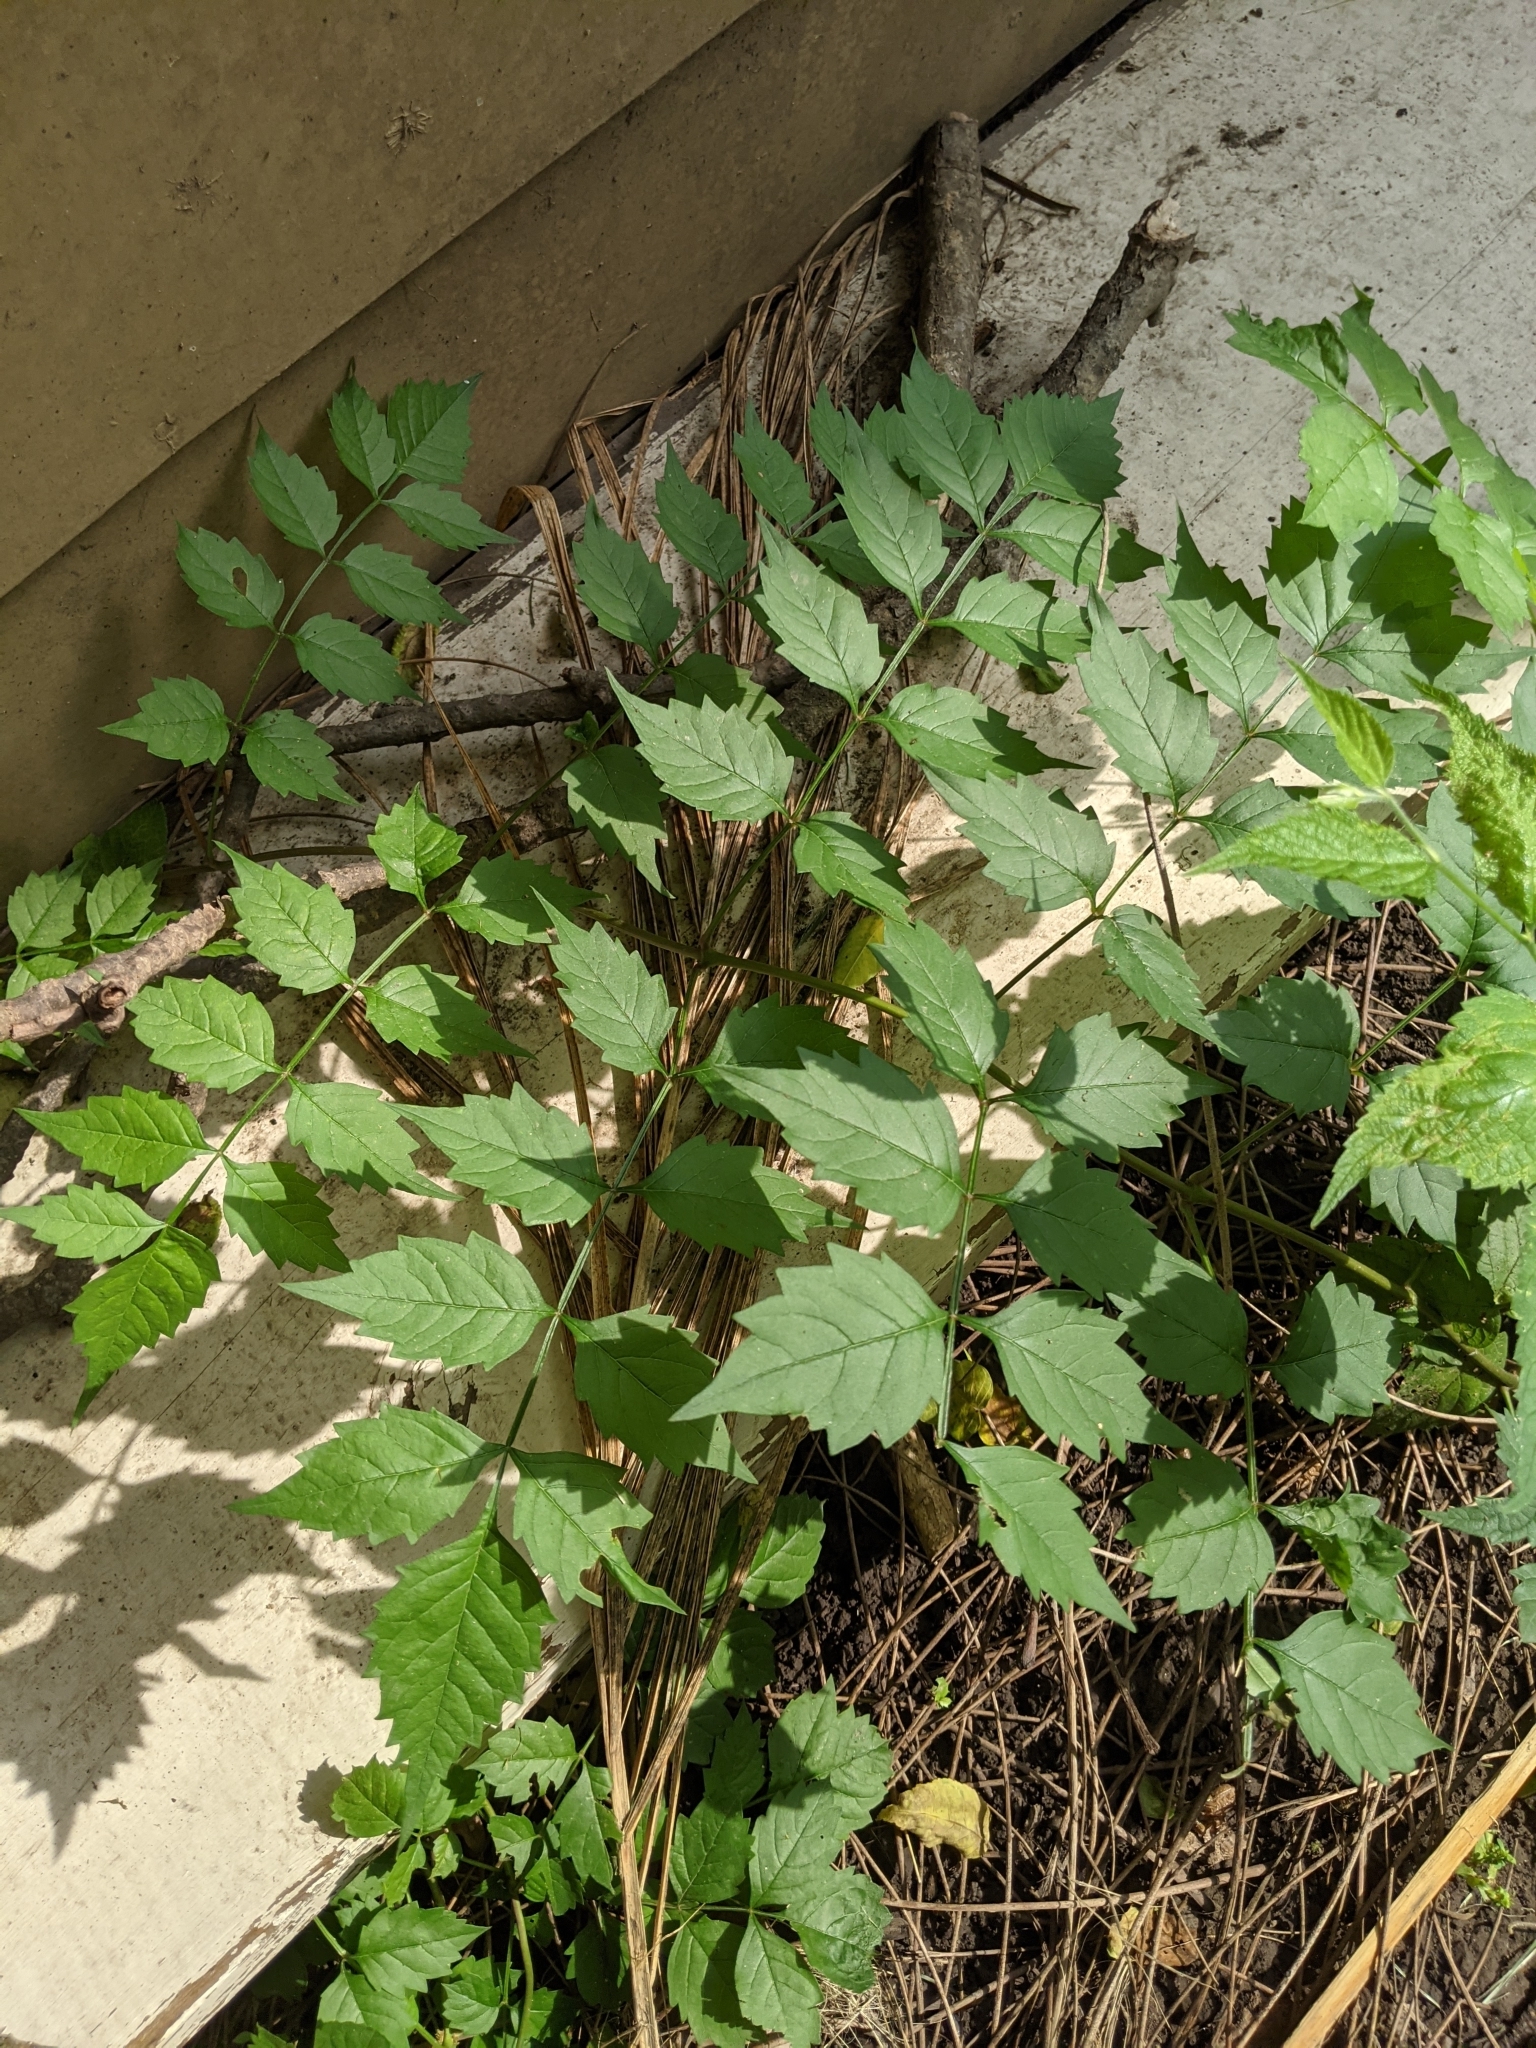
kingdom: Plantae
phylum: Tracheophyta
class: Magnoliopsida
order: Lamiales
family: Bignoniaceae
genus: Campsis
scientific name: Campsis radicans
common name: Trumpet-creeper
